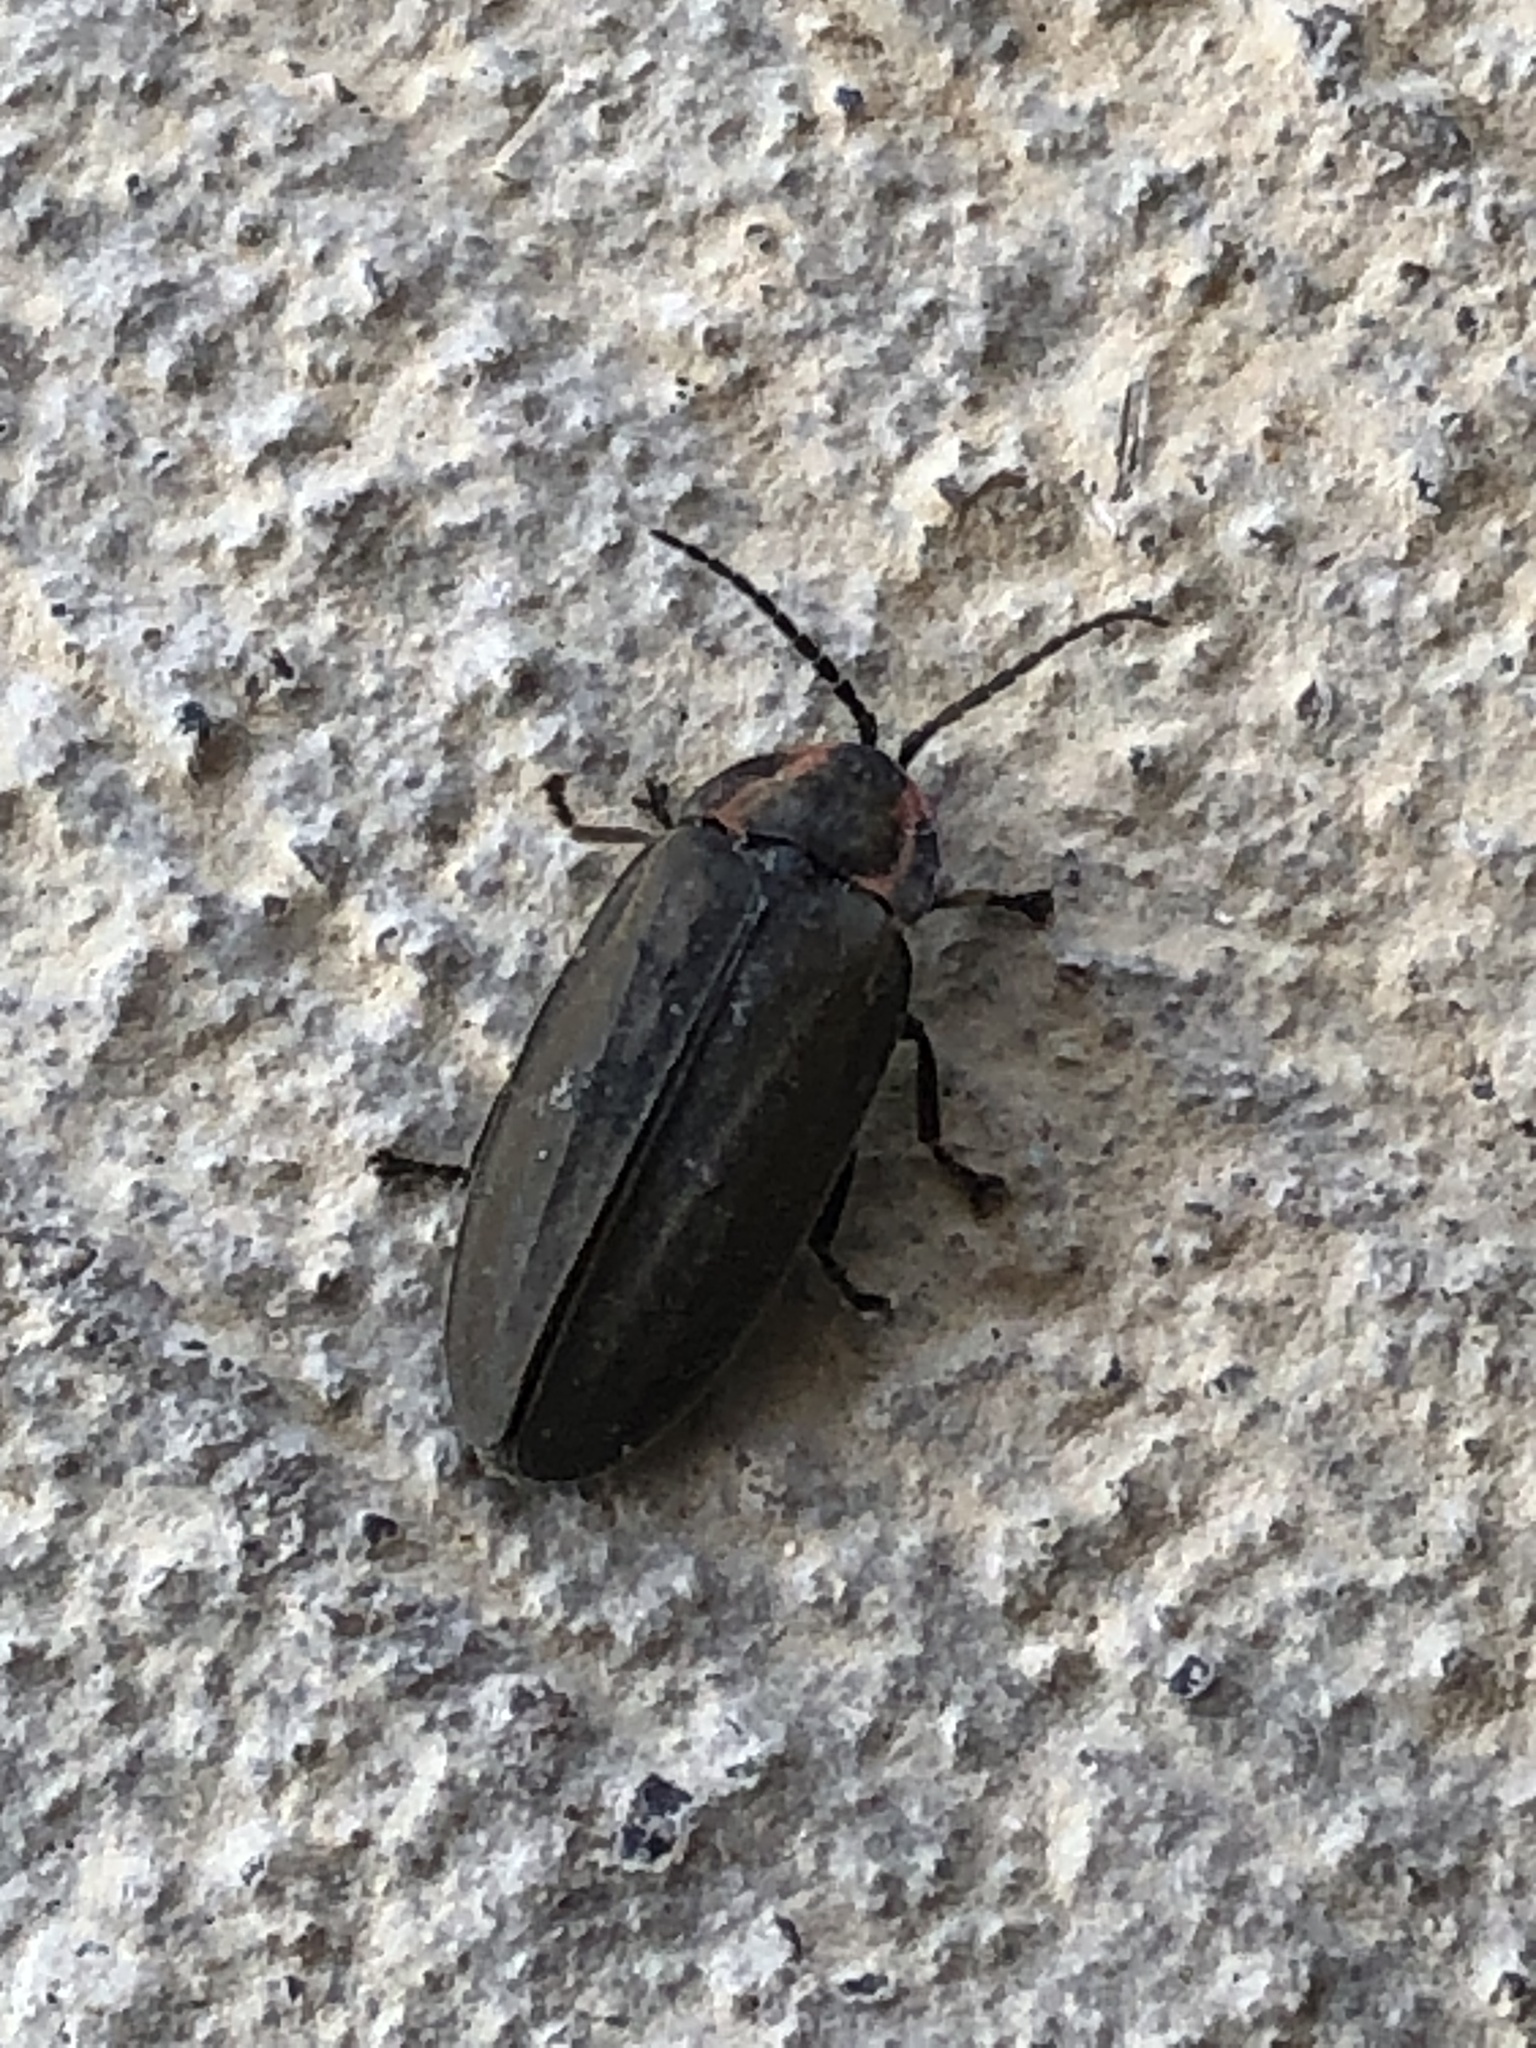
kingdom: Animalia
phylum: Arthropoda
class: Insecta
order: Coleoptera
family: Lampyridae
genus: Photinus
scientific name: Photinus corrusca
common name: Winter firefly
